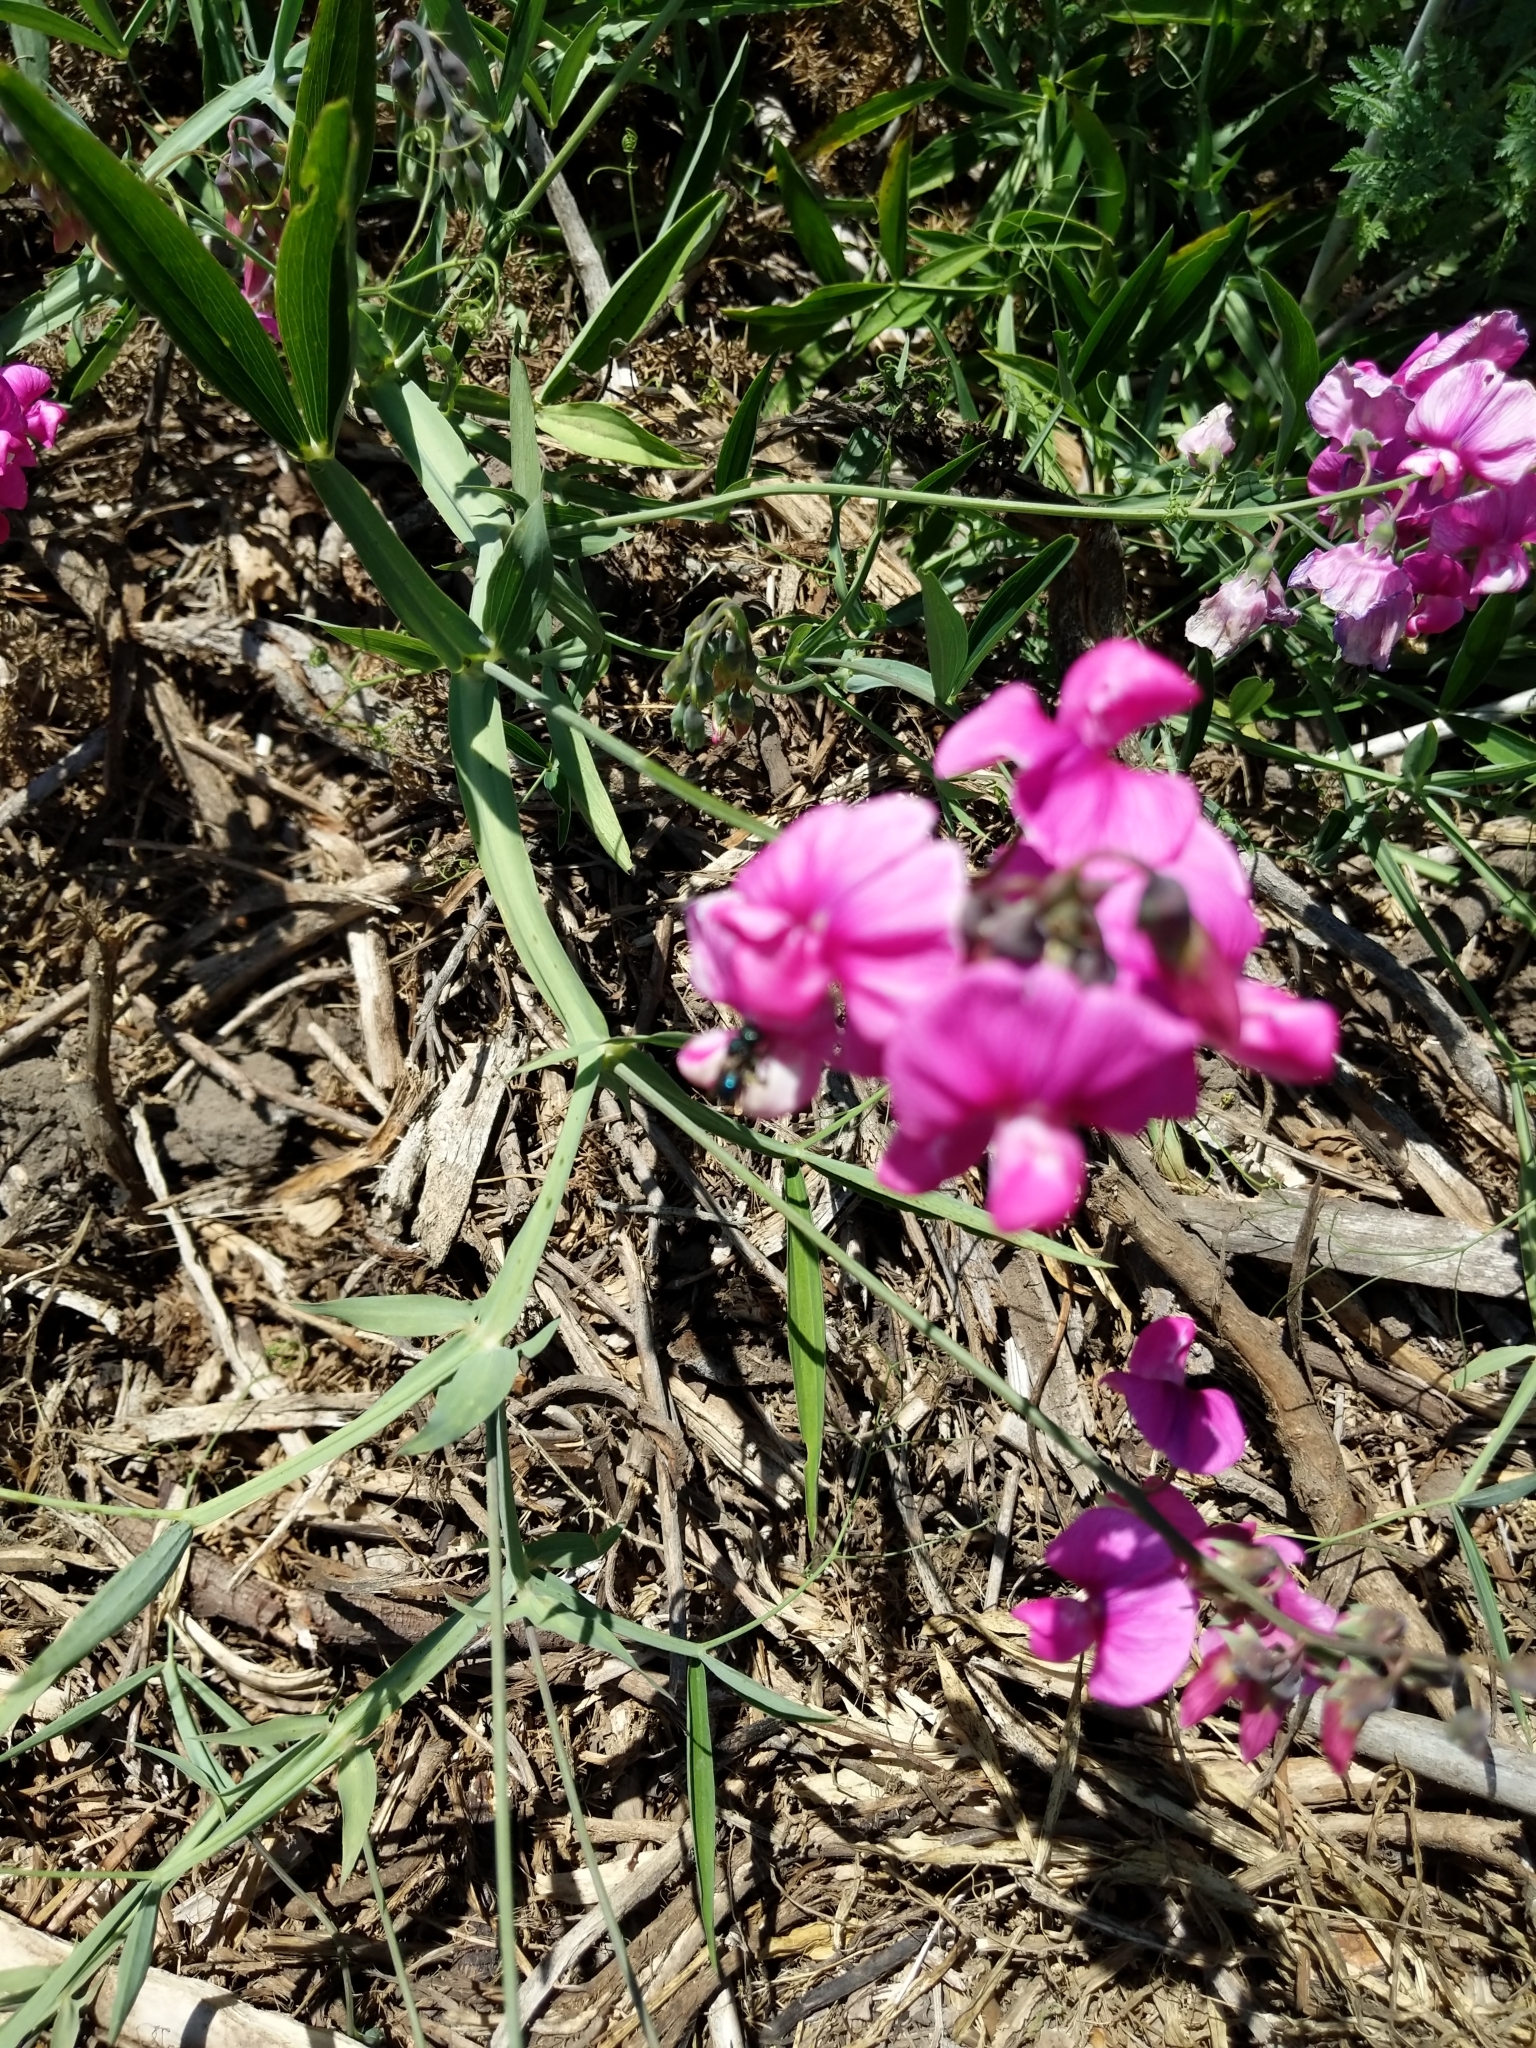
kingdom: Plantae
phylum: Tracheophyta
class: Magnoliopsida
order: Fabales
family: Fabaceae
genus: Lathyrus
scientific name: Lathyrus latifolius
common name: Perennial pea
